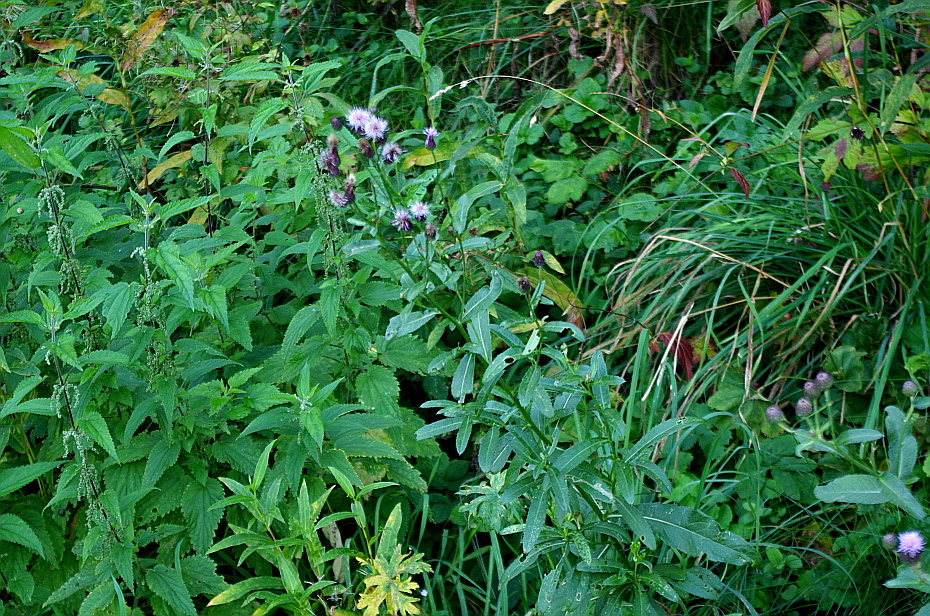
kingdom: Plantae
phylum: Tracheophyta
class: Magnoliopsida
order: Rosales
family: Urticaceae
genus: Urtica
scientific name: Urtica dioica
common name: Common nettle
